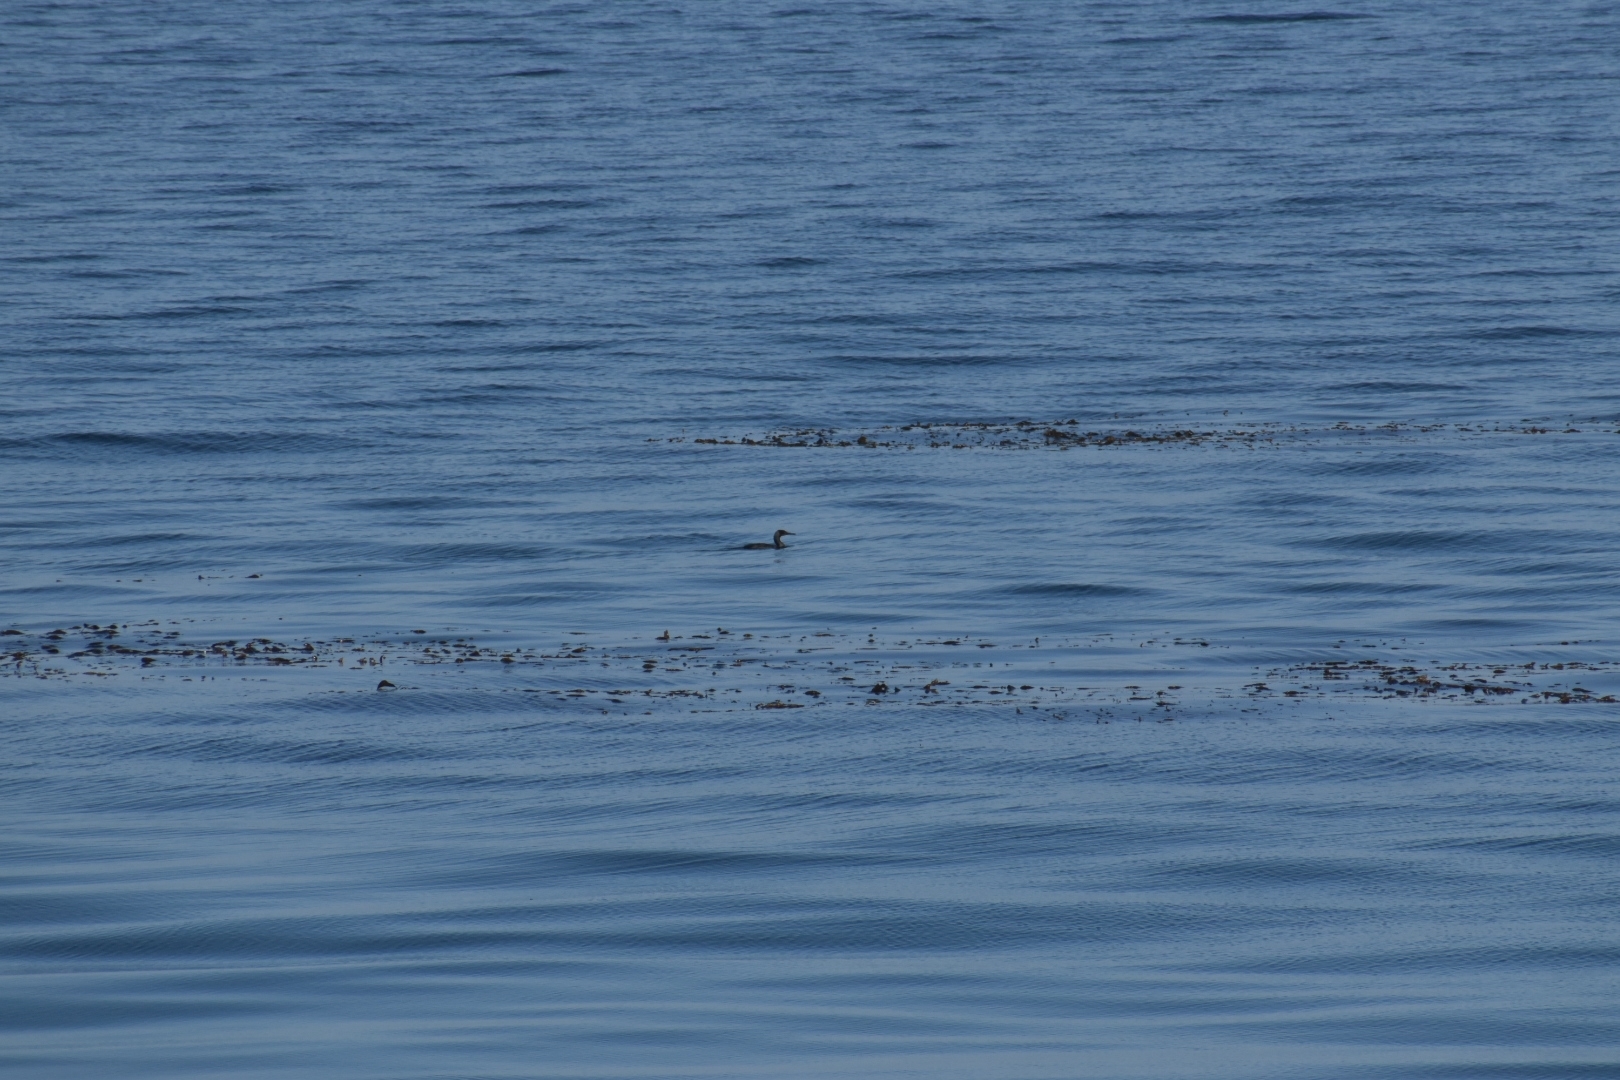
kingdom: Animalia
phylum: Chordata
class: Aves
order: Suliformes
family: Phalacrocoracidae
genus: Urile
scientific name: Urile penicillatus
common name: Brandt's cormorant
